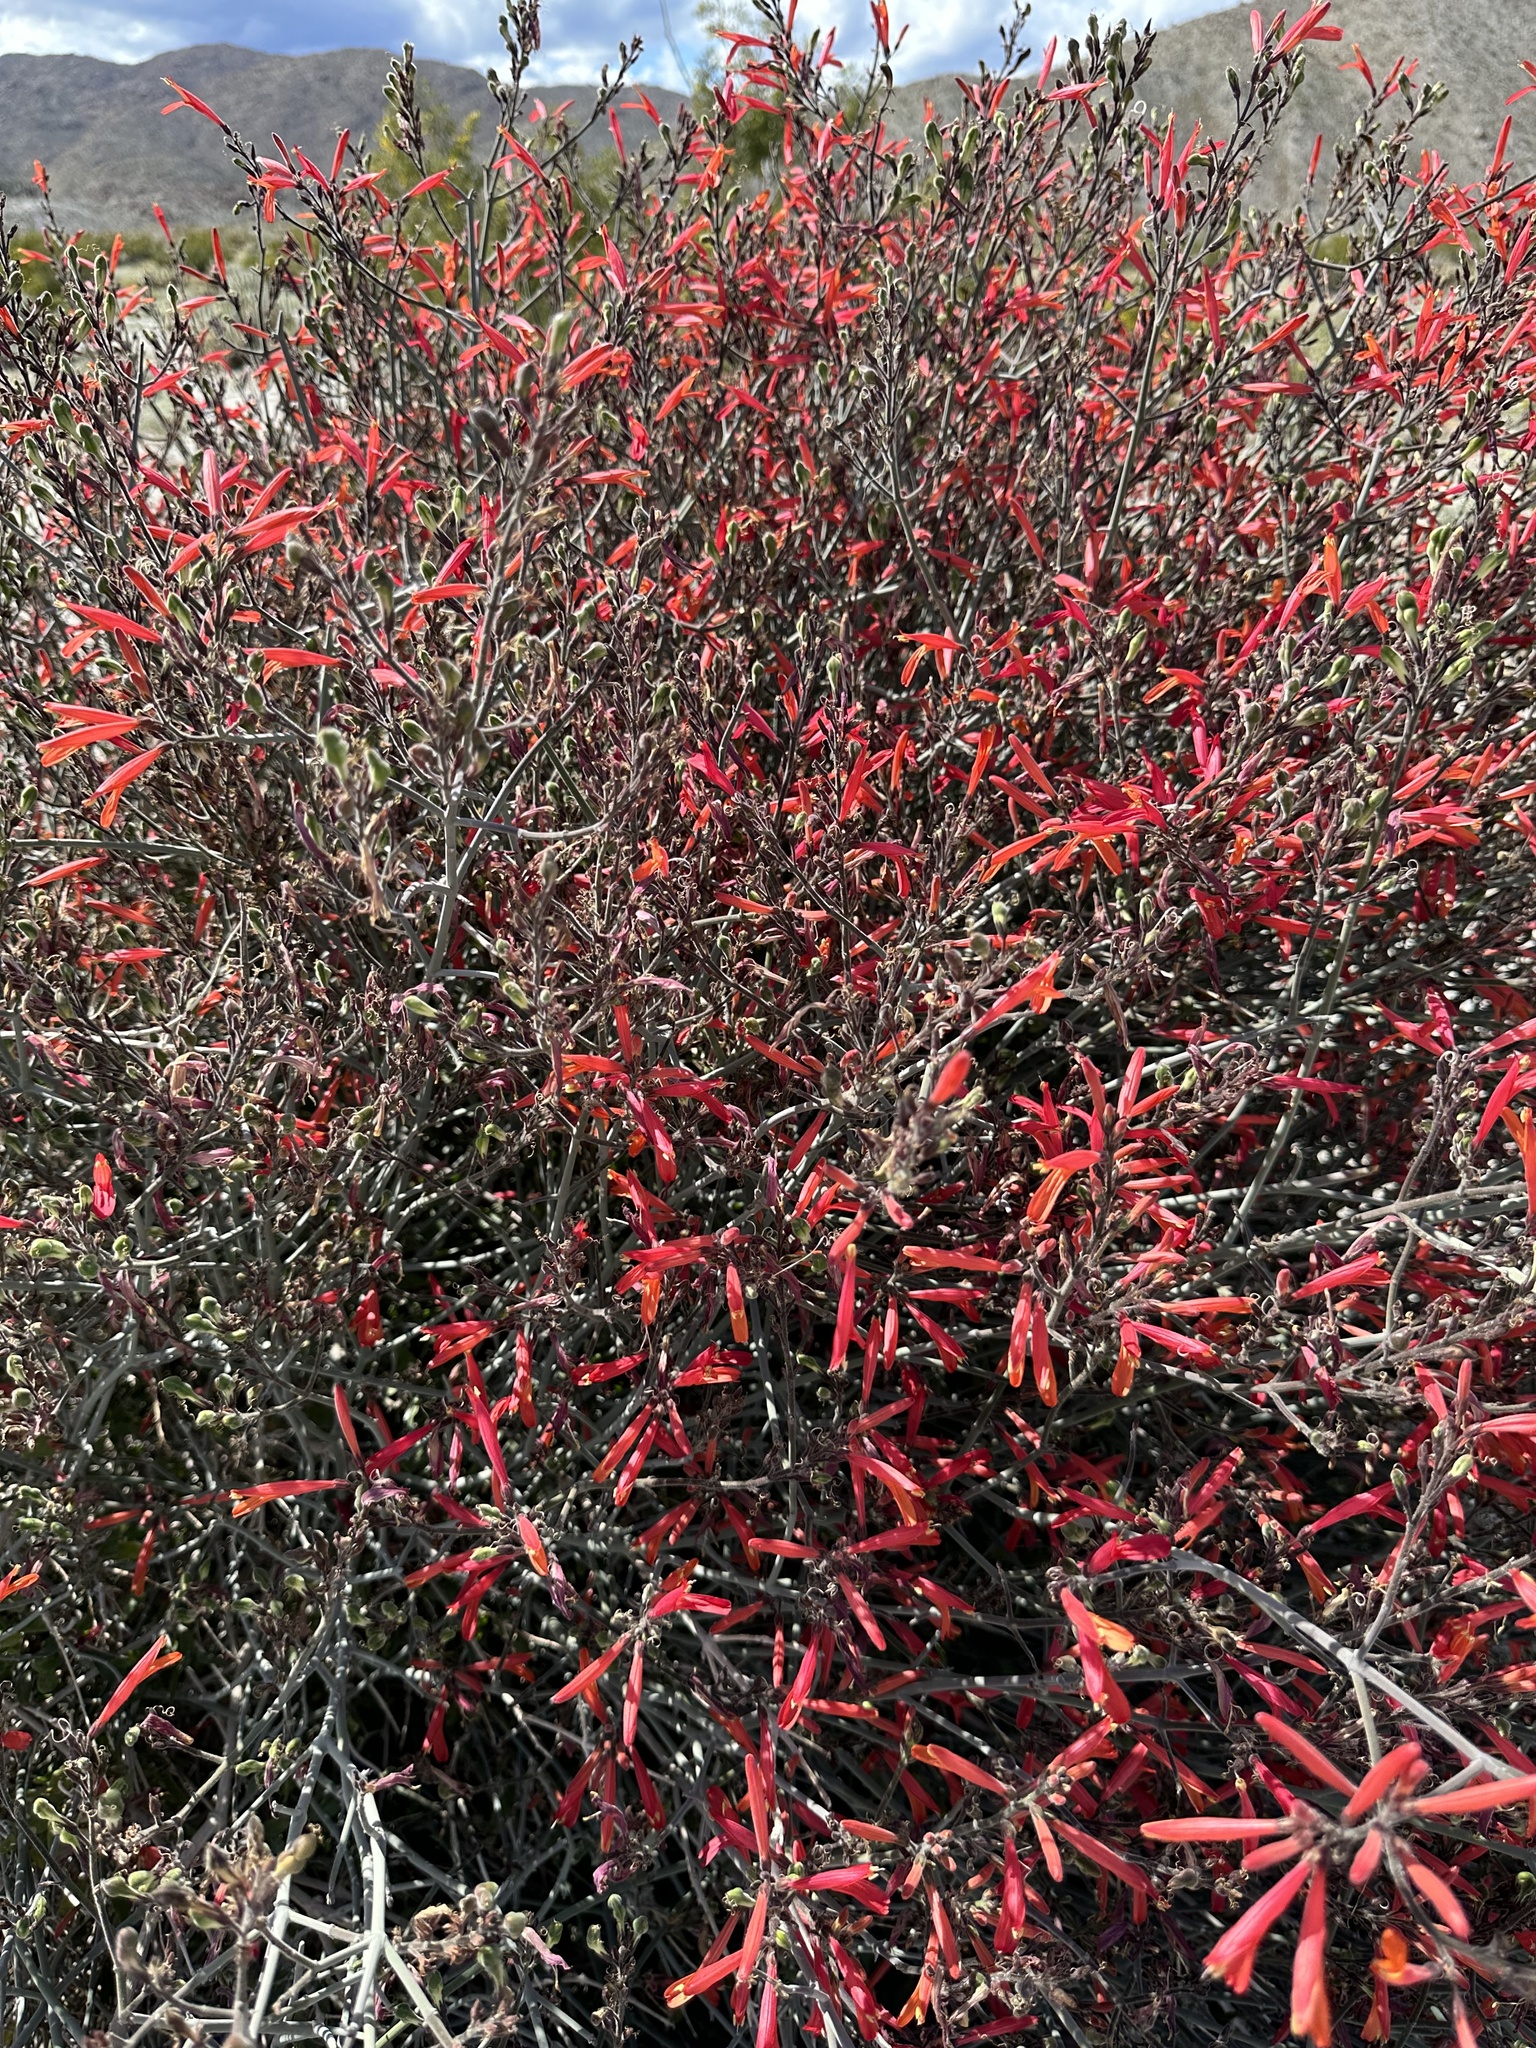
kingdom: Plantae
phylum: Tracheophyta
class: Magnoliopsida
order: Lamiales
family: Acanthaceae
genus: Justicia
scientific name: Justicia californica
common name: Chuparosa-honeysuckle
